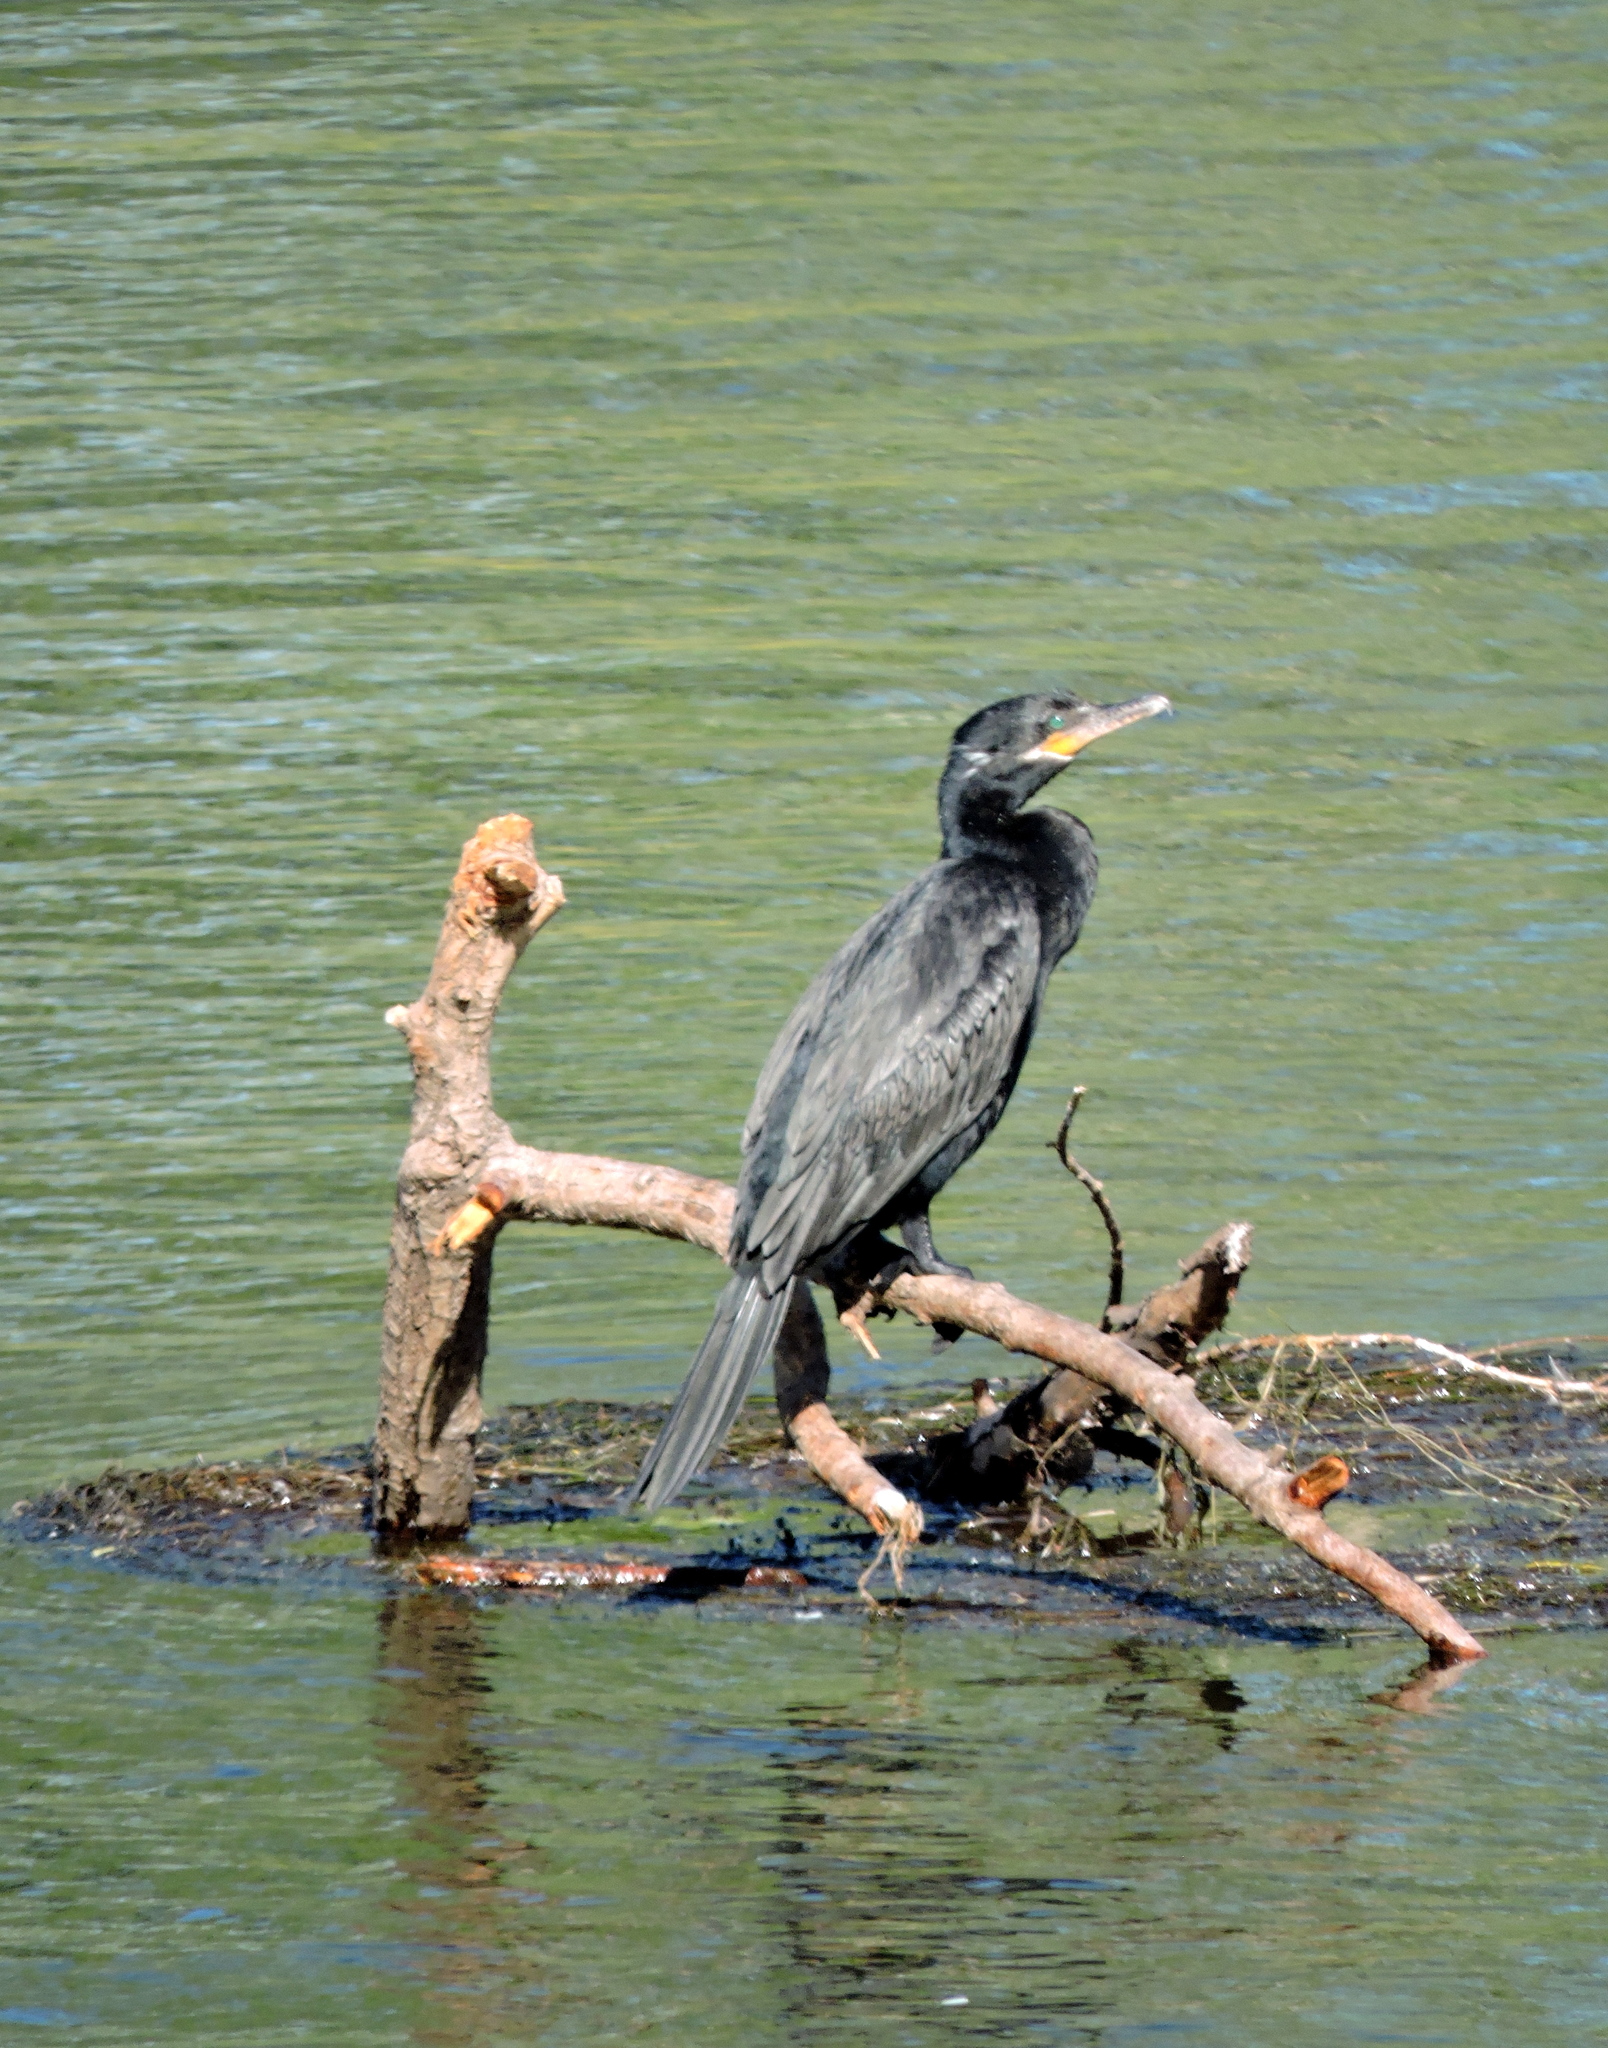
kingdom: Animalia
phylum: Chordata
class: Aves
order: Suliformes
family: Phalacrocoracidae
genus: Phalacrocorax
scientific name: Phalacrocorax brasilianus
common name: Neotropic cormorant
